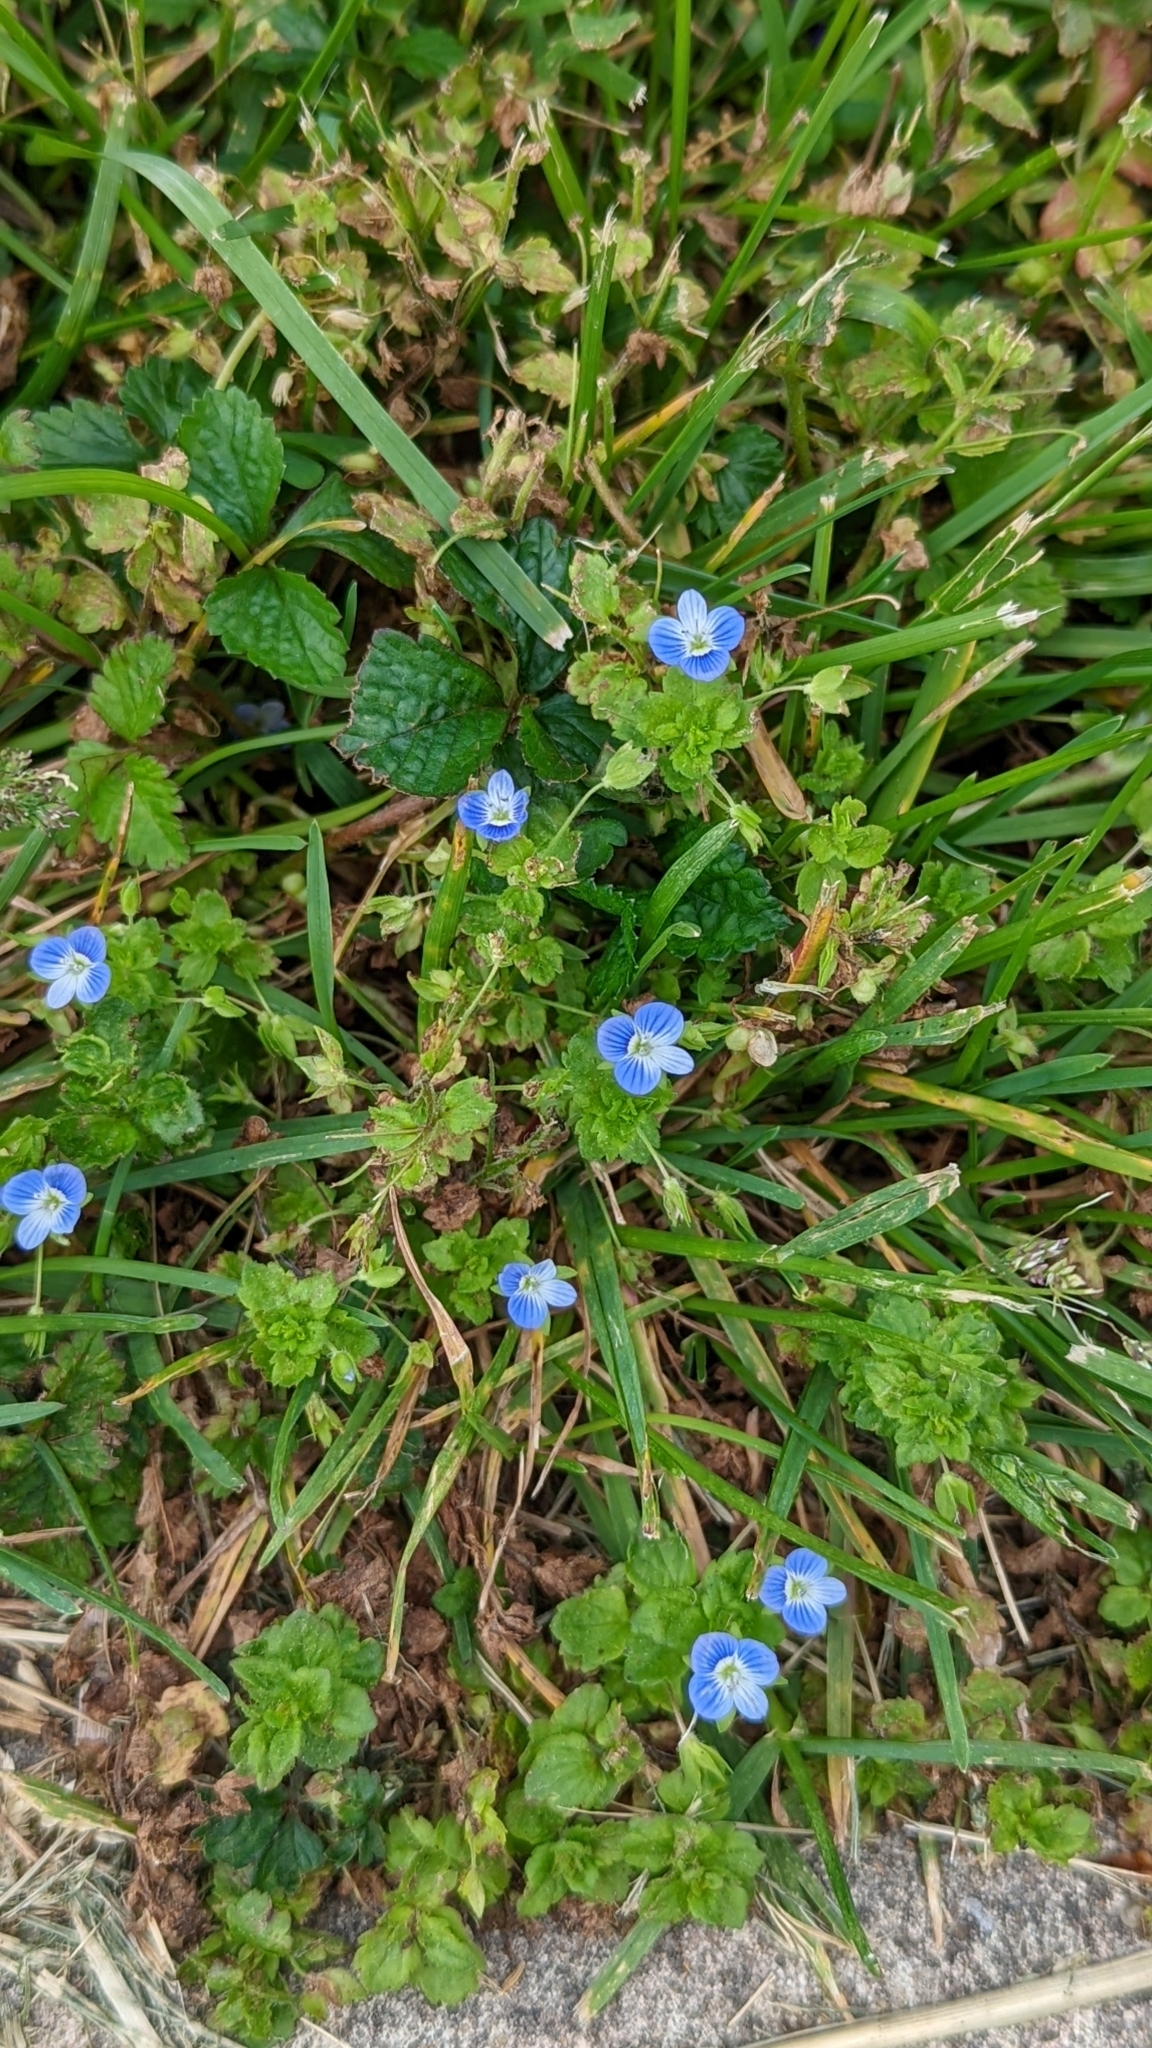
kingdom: Plantae
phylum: Tracheophyta
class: Magnoliopsida
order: Lamiales
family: Plantaginaceae
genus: Veronica
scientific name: Veronica persica
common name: Common field-speedwell
